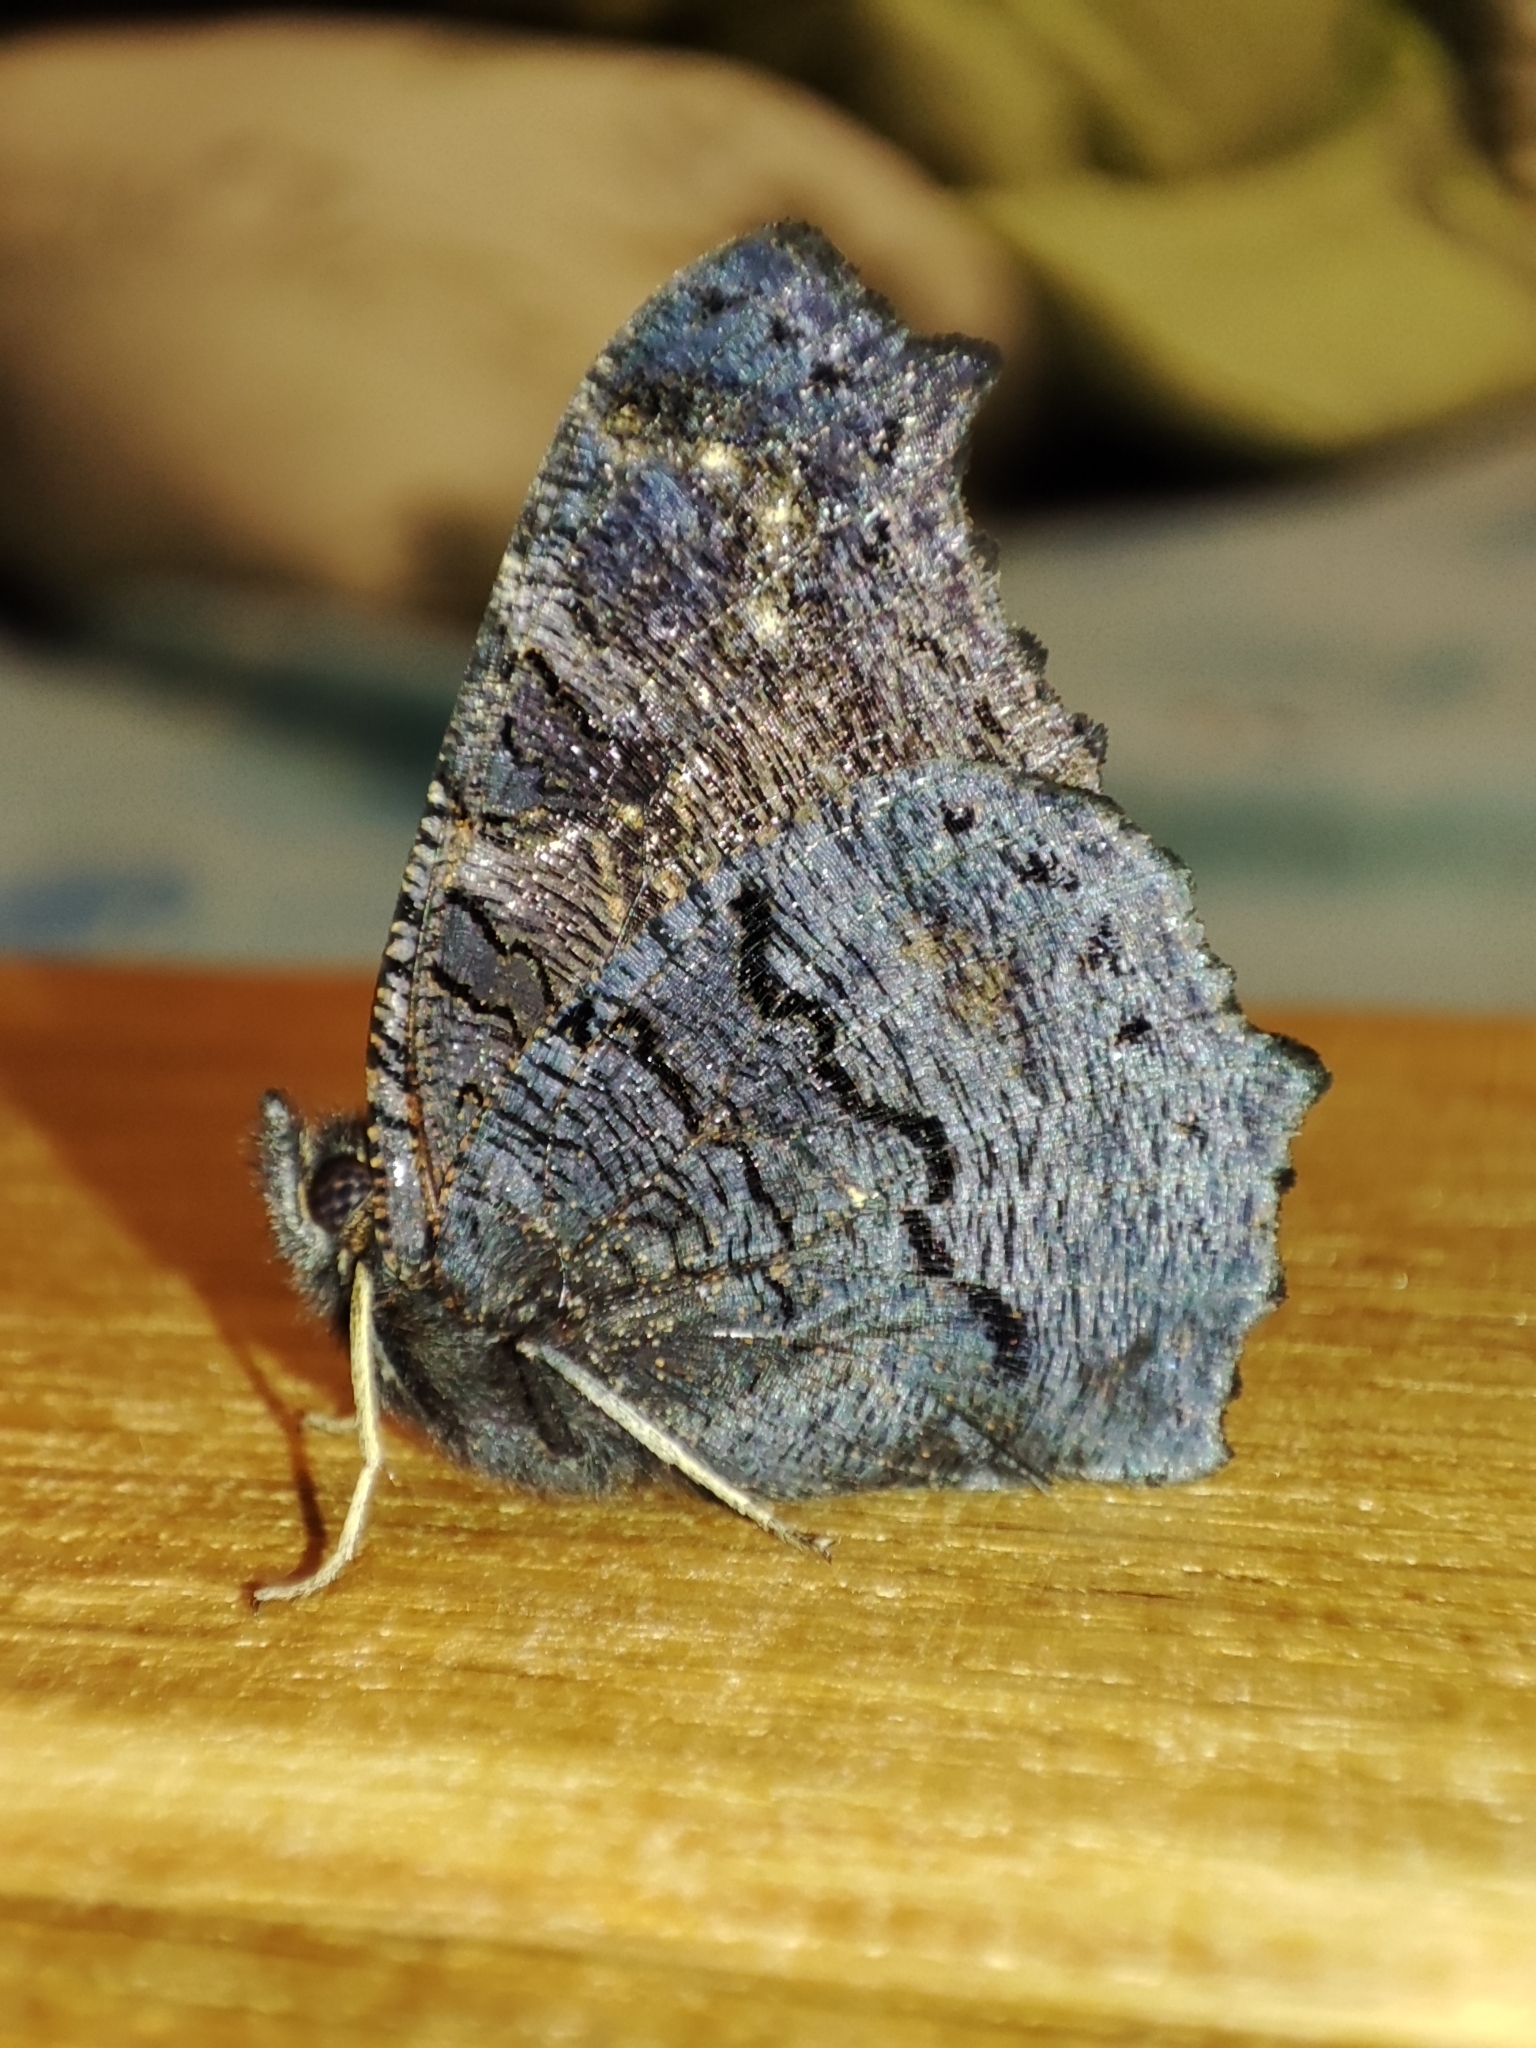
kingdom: Animalia
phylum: Arthropoda
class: Insecta
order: Lepidoptera
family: Nymphalidae
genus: Aglais
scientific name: Aglais io
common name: Peacock
